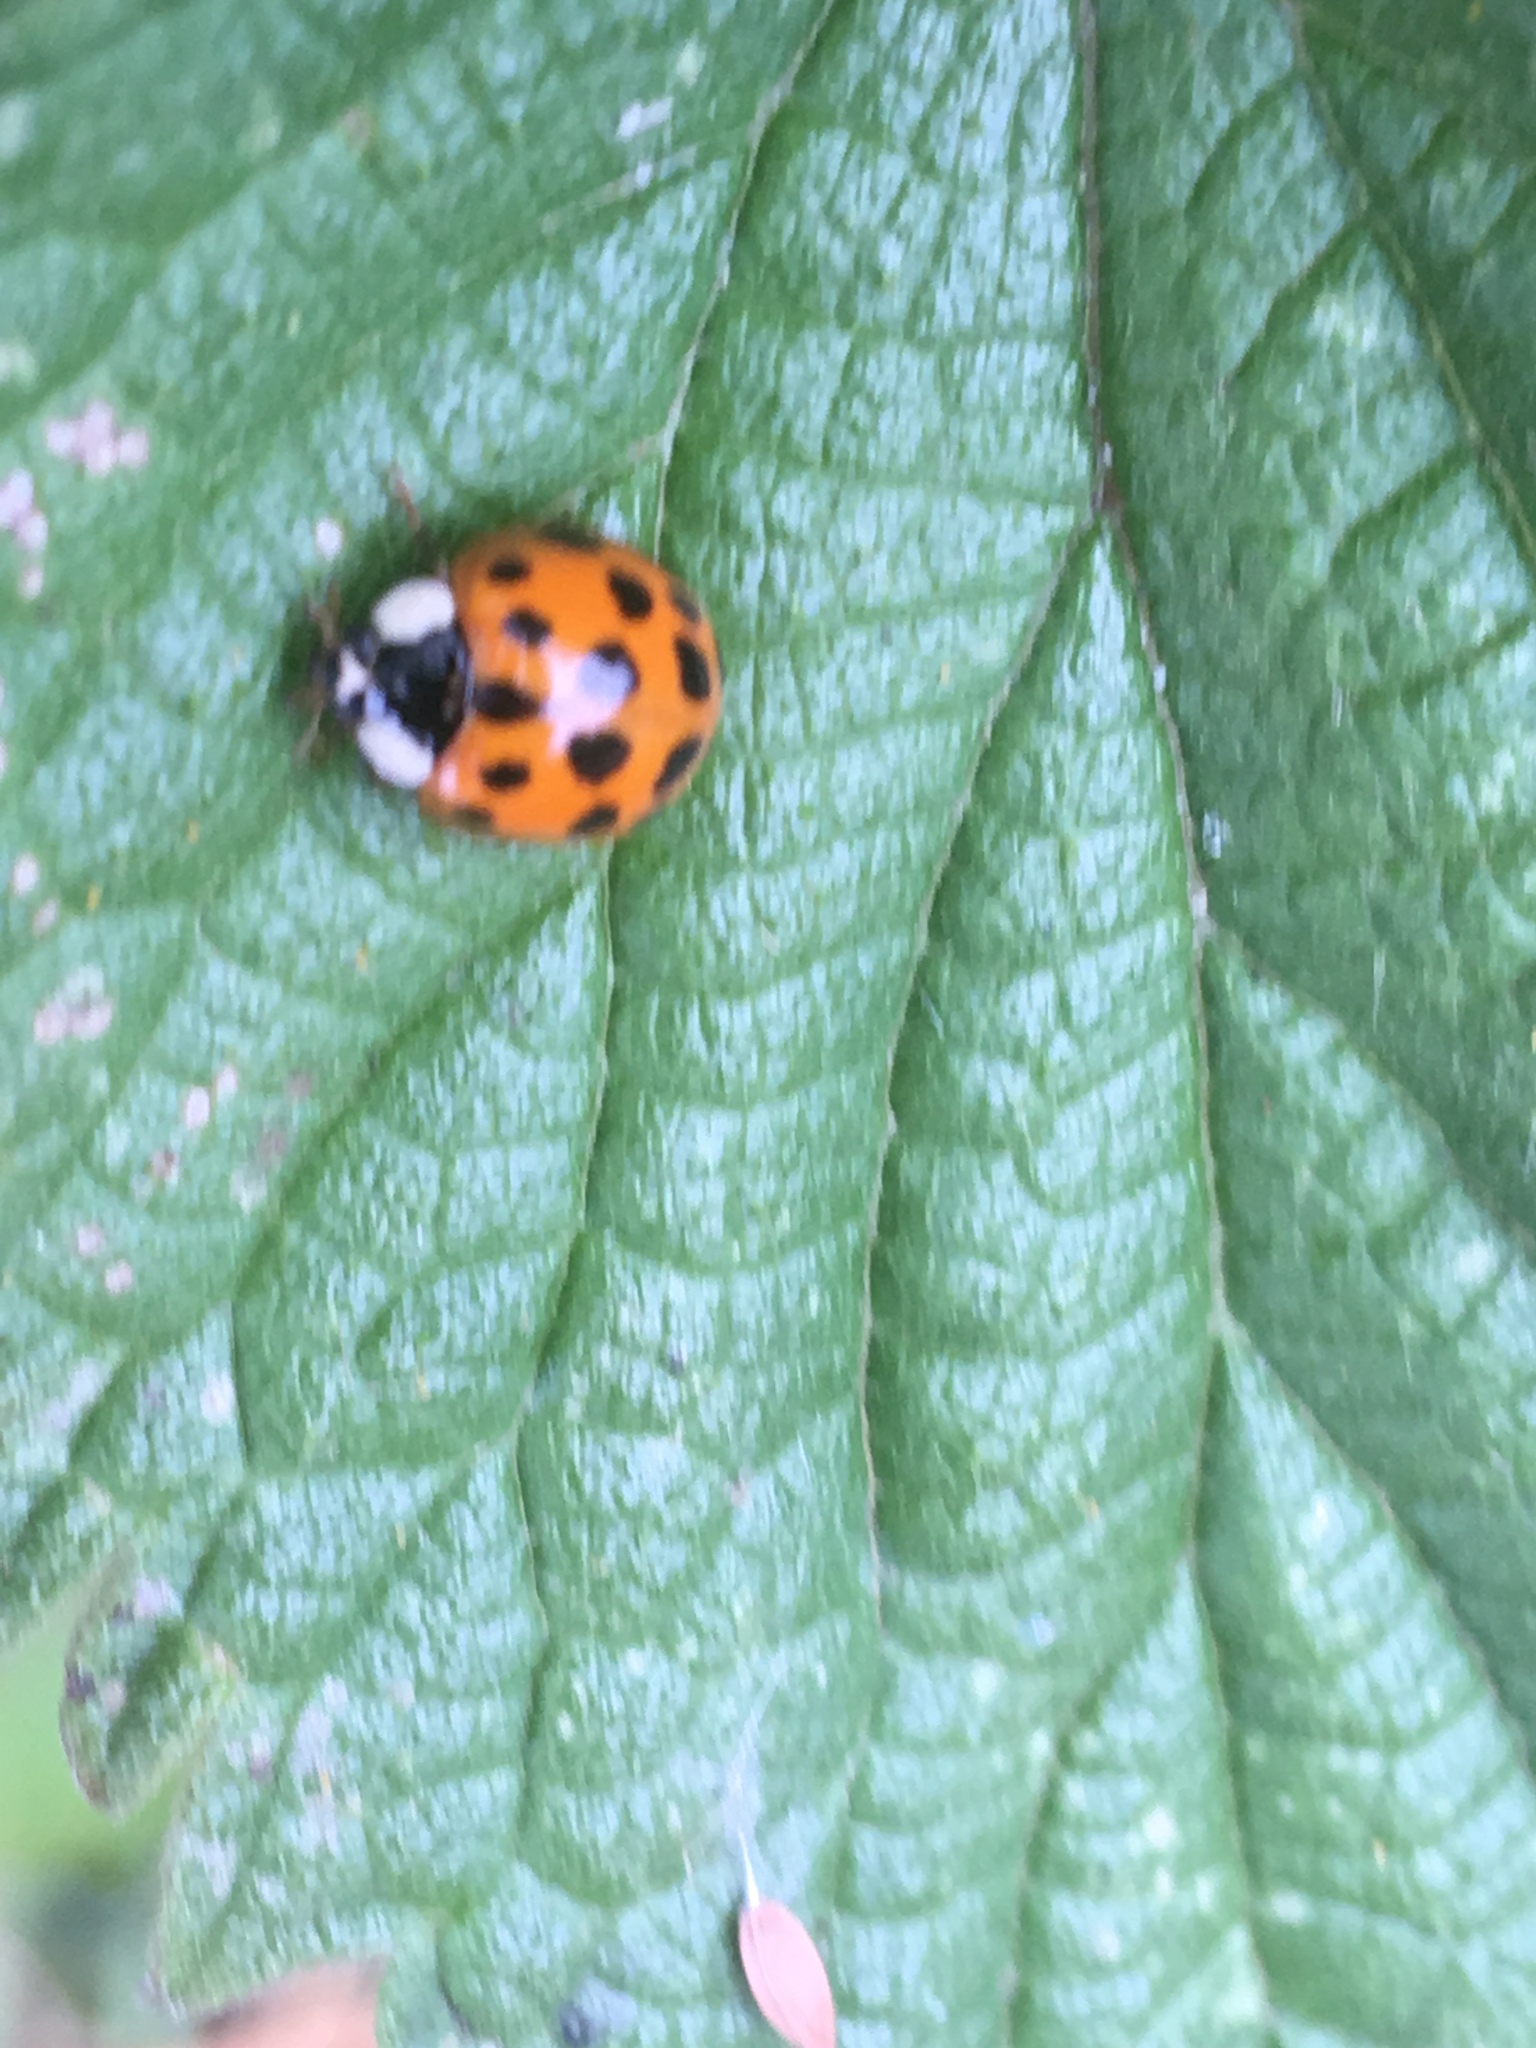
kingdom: Animalia
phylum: Arthropoda
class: Insecta
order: Coleoptera
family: Coccinellidae
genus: Harmonia
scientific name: Harmonia axyridis
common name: Harlequin ladybird
